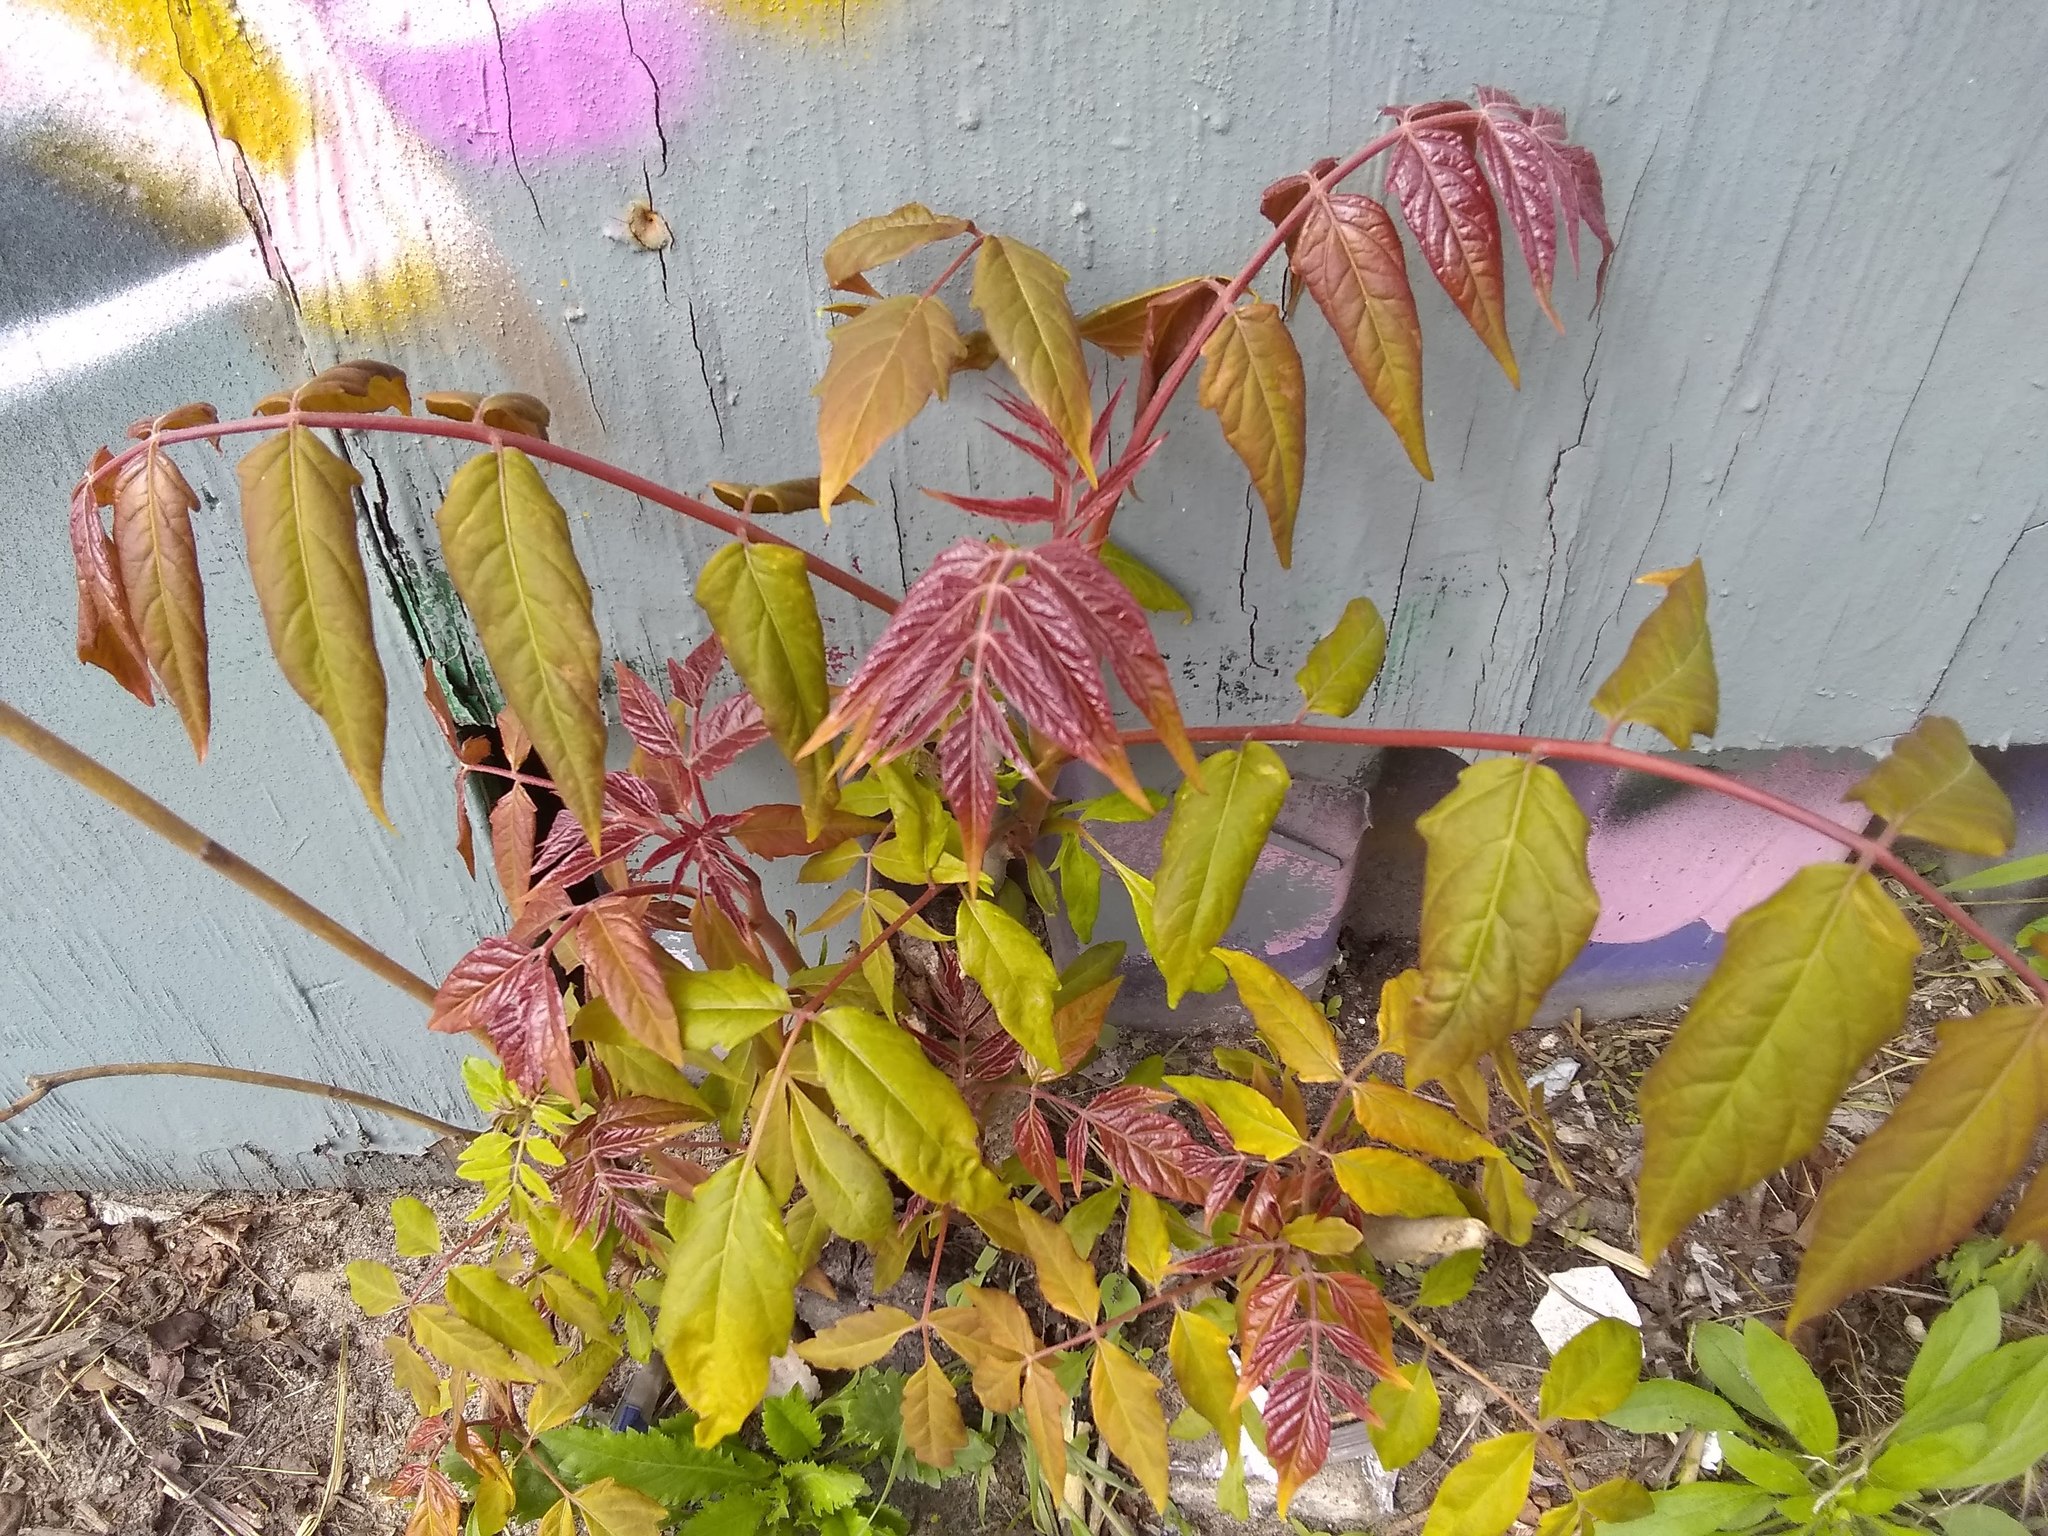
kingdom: Plantae
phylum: Tracheophyta
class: Magnoliopsida
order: Sapindales
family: Simaroubaceae
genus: Ailanthus
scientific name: Ailanthus altissima
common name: Tree-of-heaven
